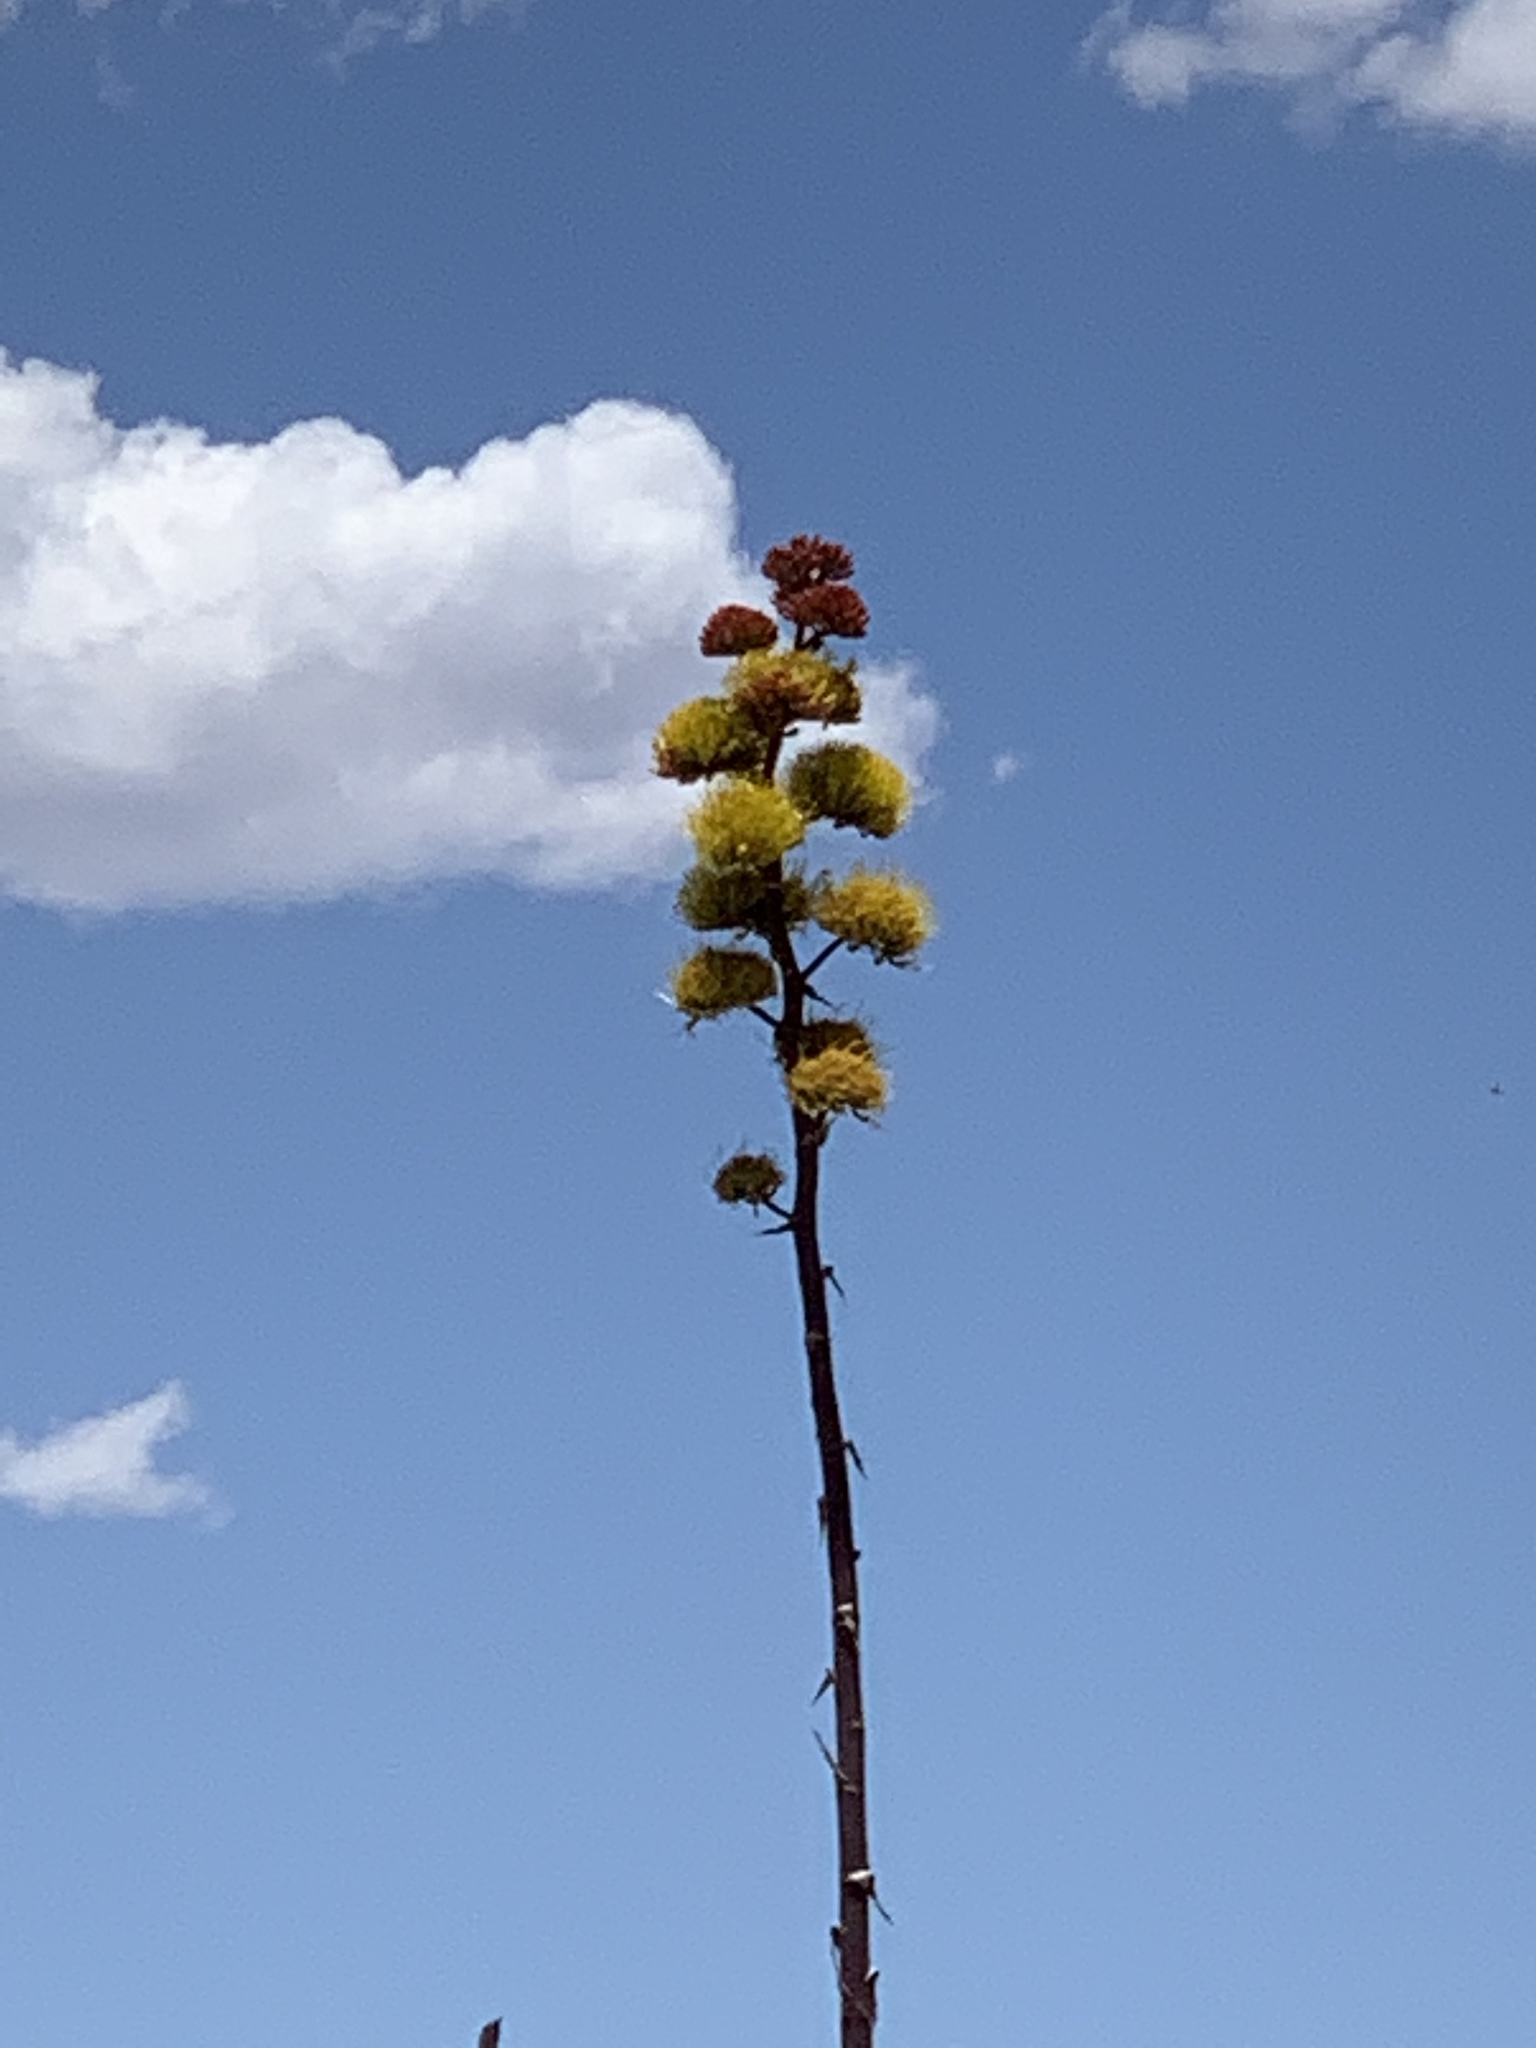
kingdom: Plantae
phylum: Tracheophyta
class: Liliopsida
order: Asparagales
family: Asparagaceae
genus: Agave
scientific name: Agave parryi
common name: Parry's agave
